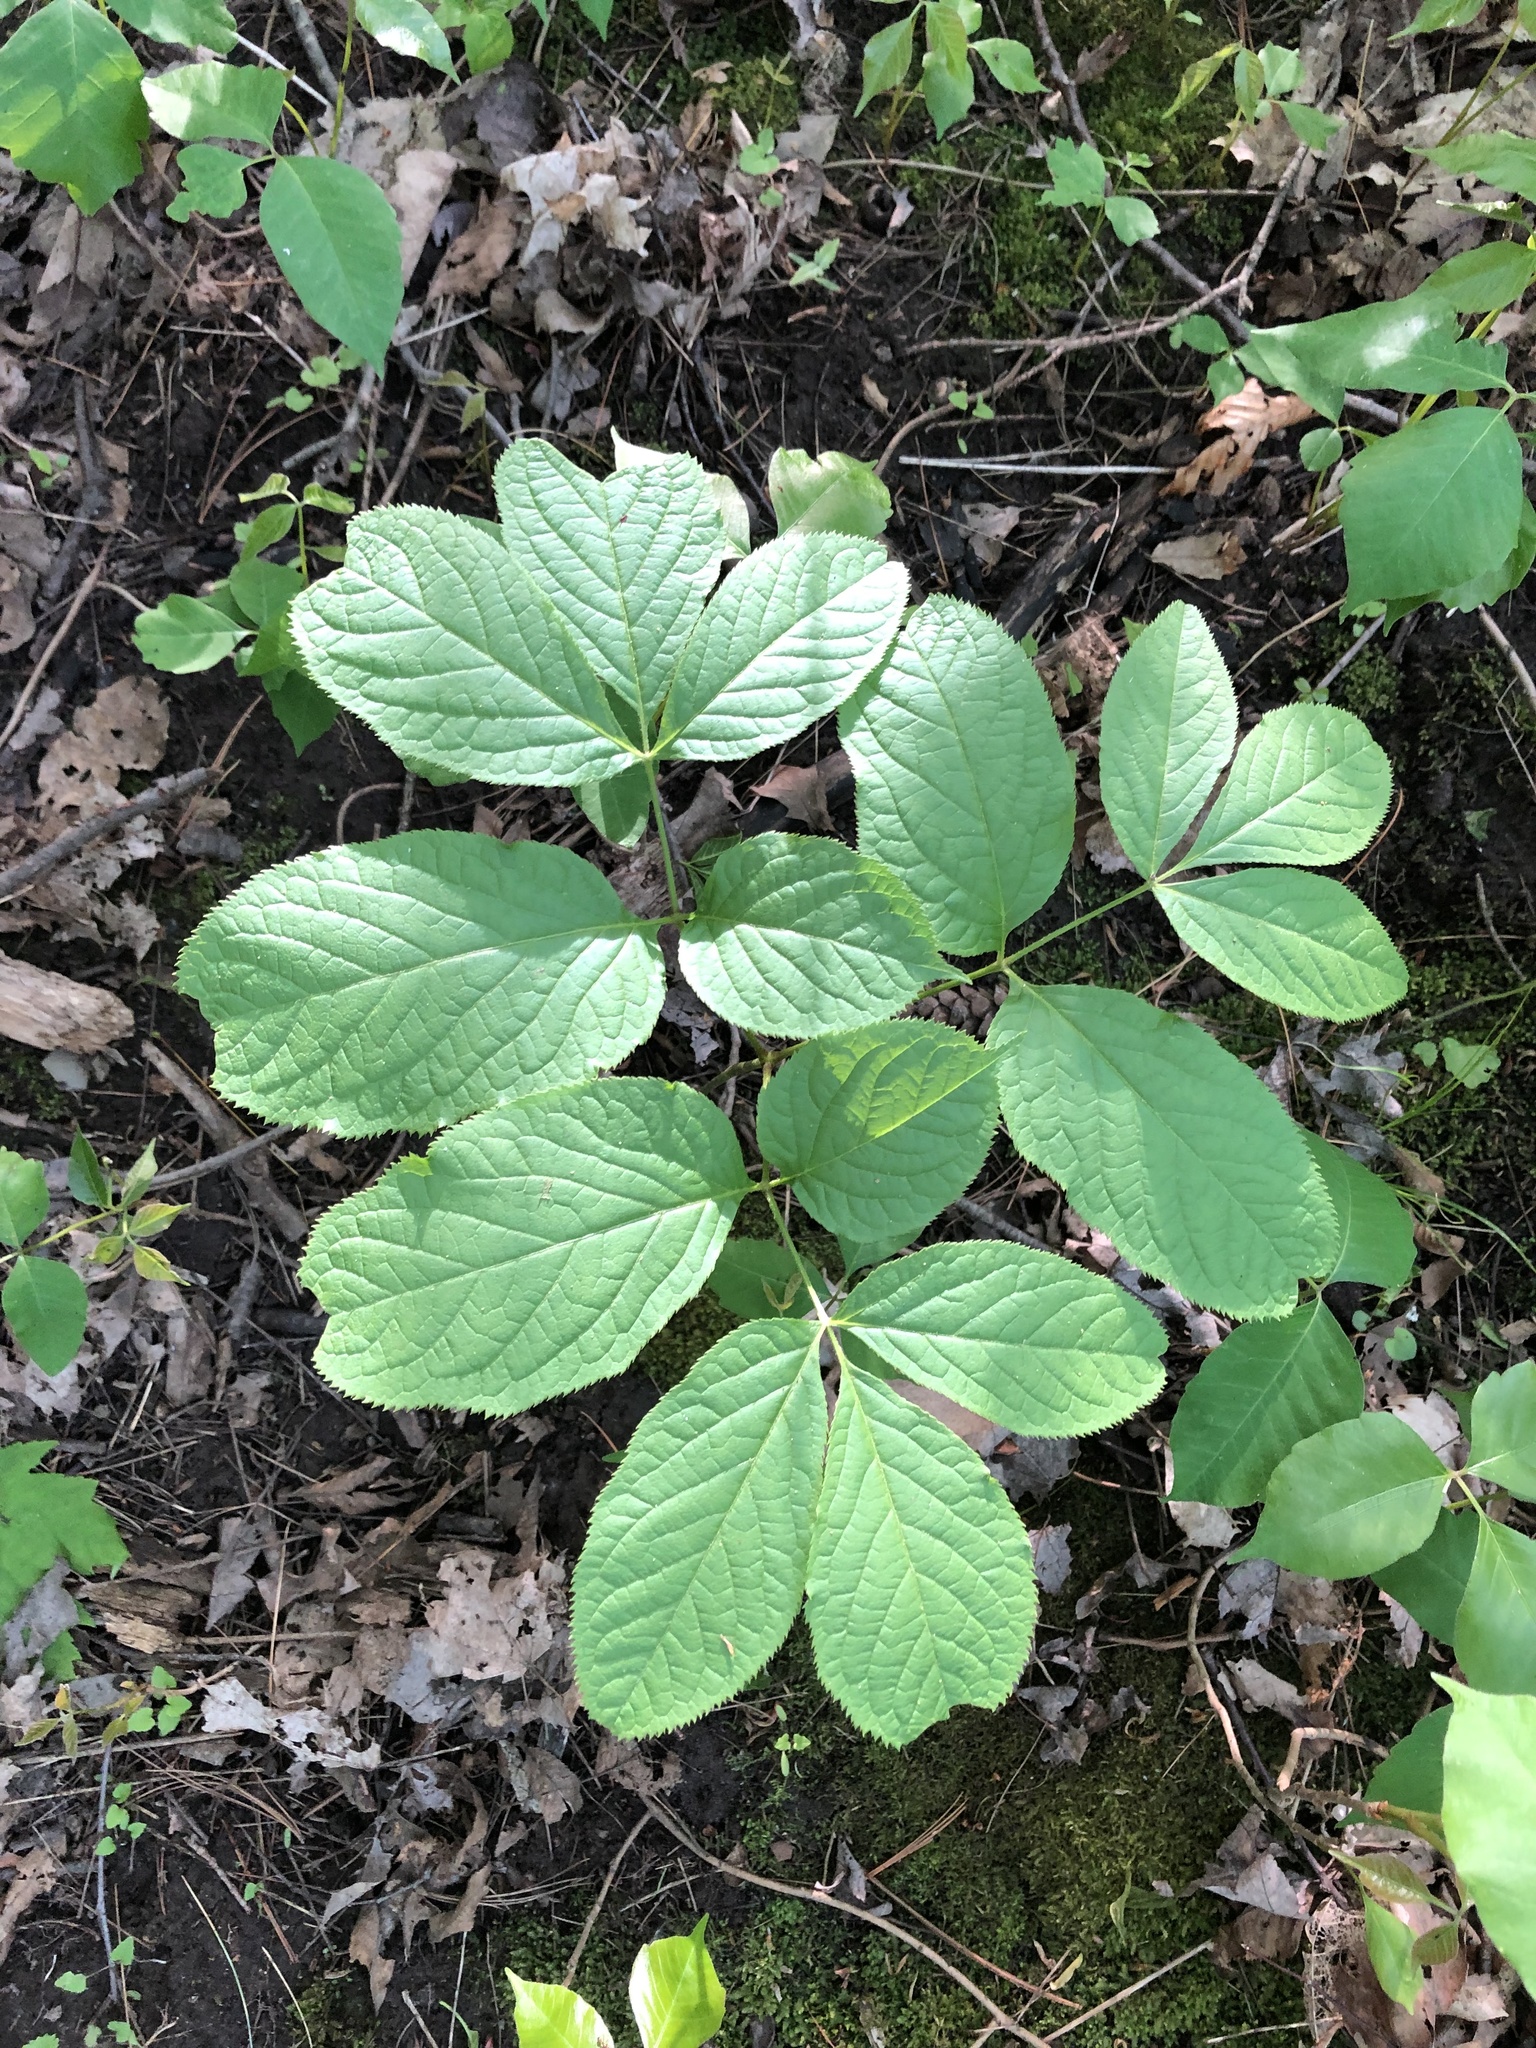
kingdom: Plantae
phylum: Tracheophyta
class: Magnoliopsida
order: Apiales
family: Araliaceae
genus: Aralia
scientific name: Aralia nudicaulis
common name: Wild sarsaparilla
